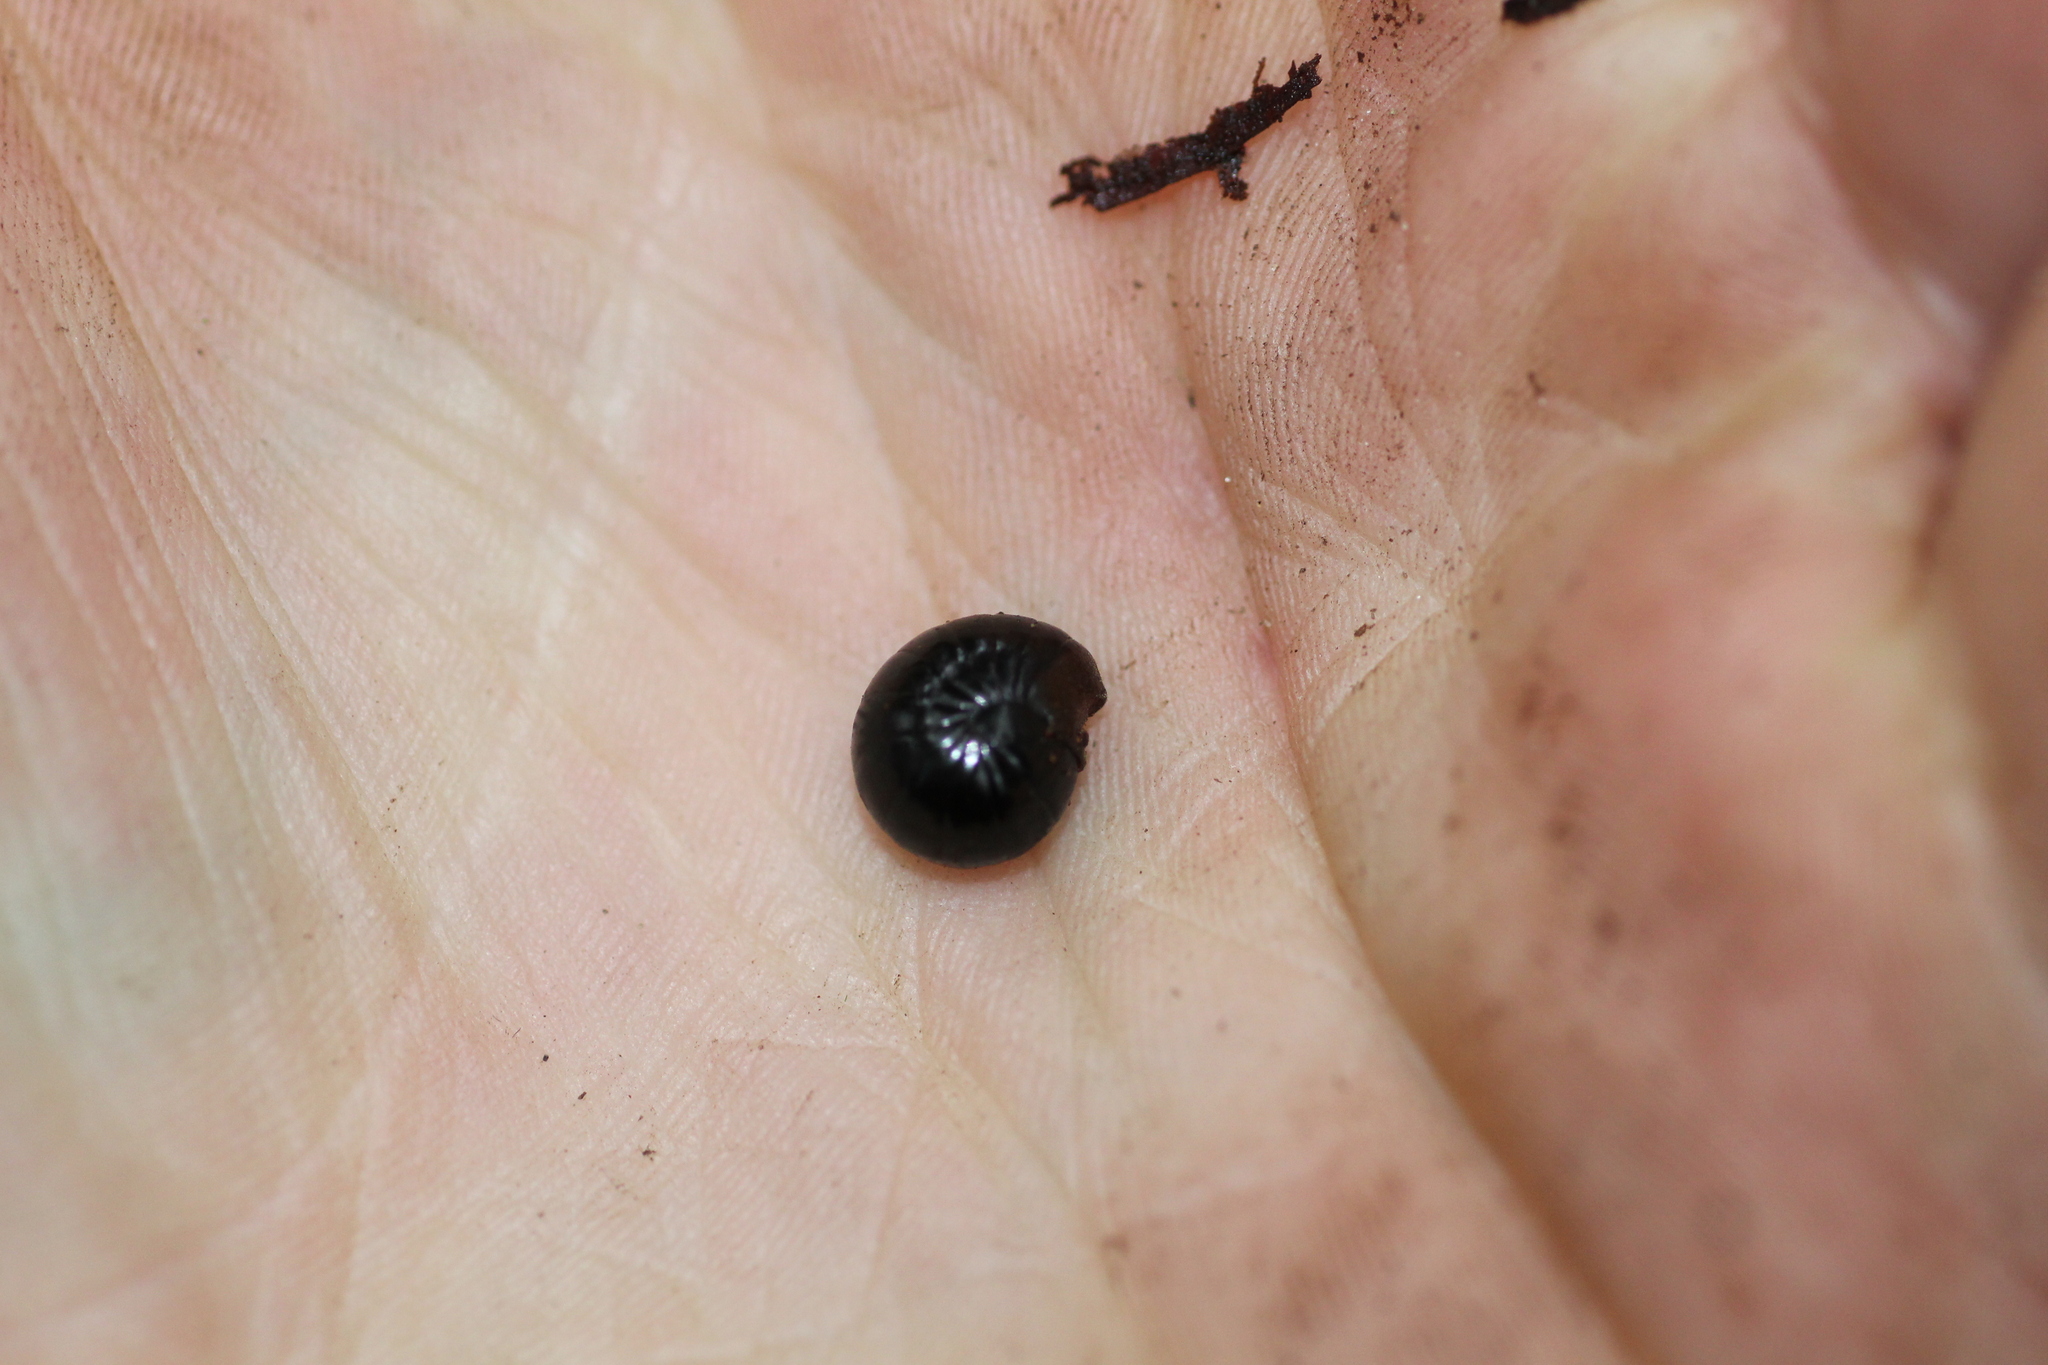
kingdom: Animalia
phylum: Arthropoda
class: Diplopoda
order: Sphaerotheriida
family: Cyliosomatidae
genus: Cynotelopus
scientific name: Cynotelopus notabilis
